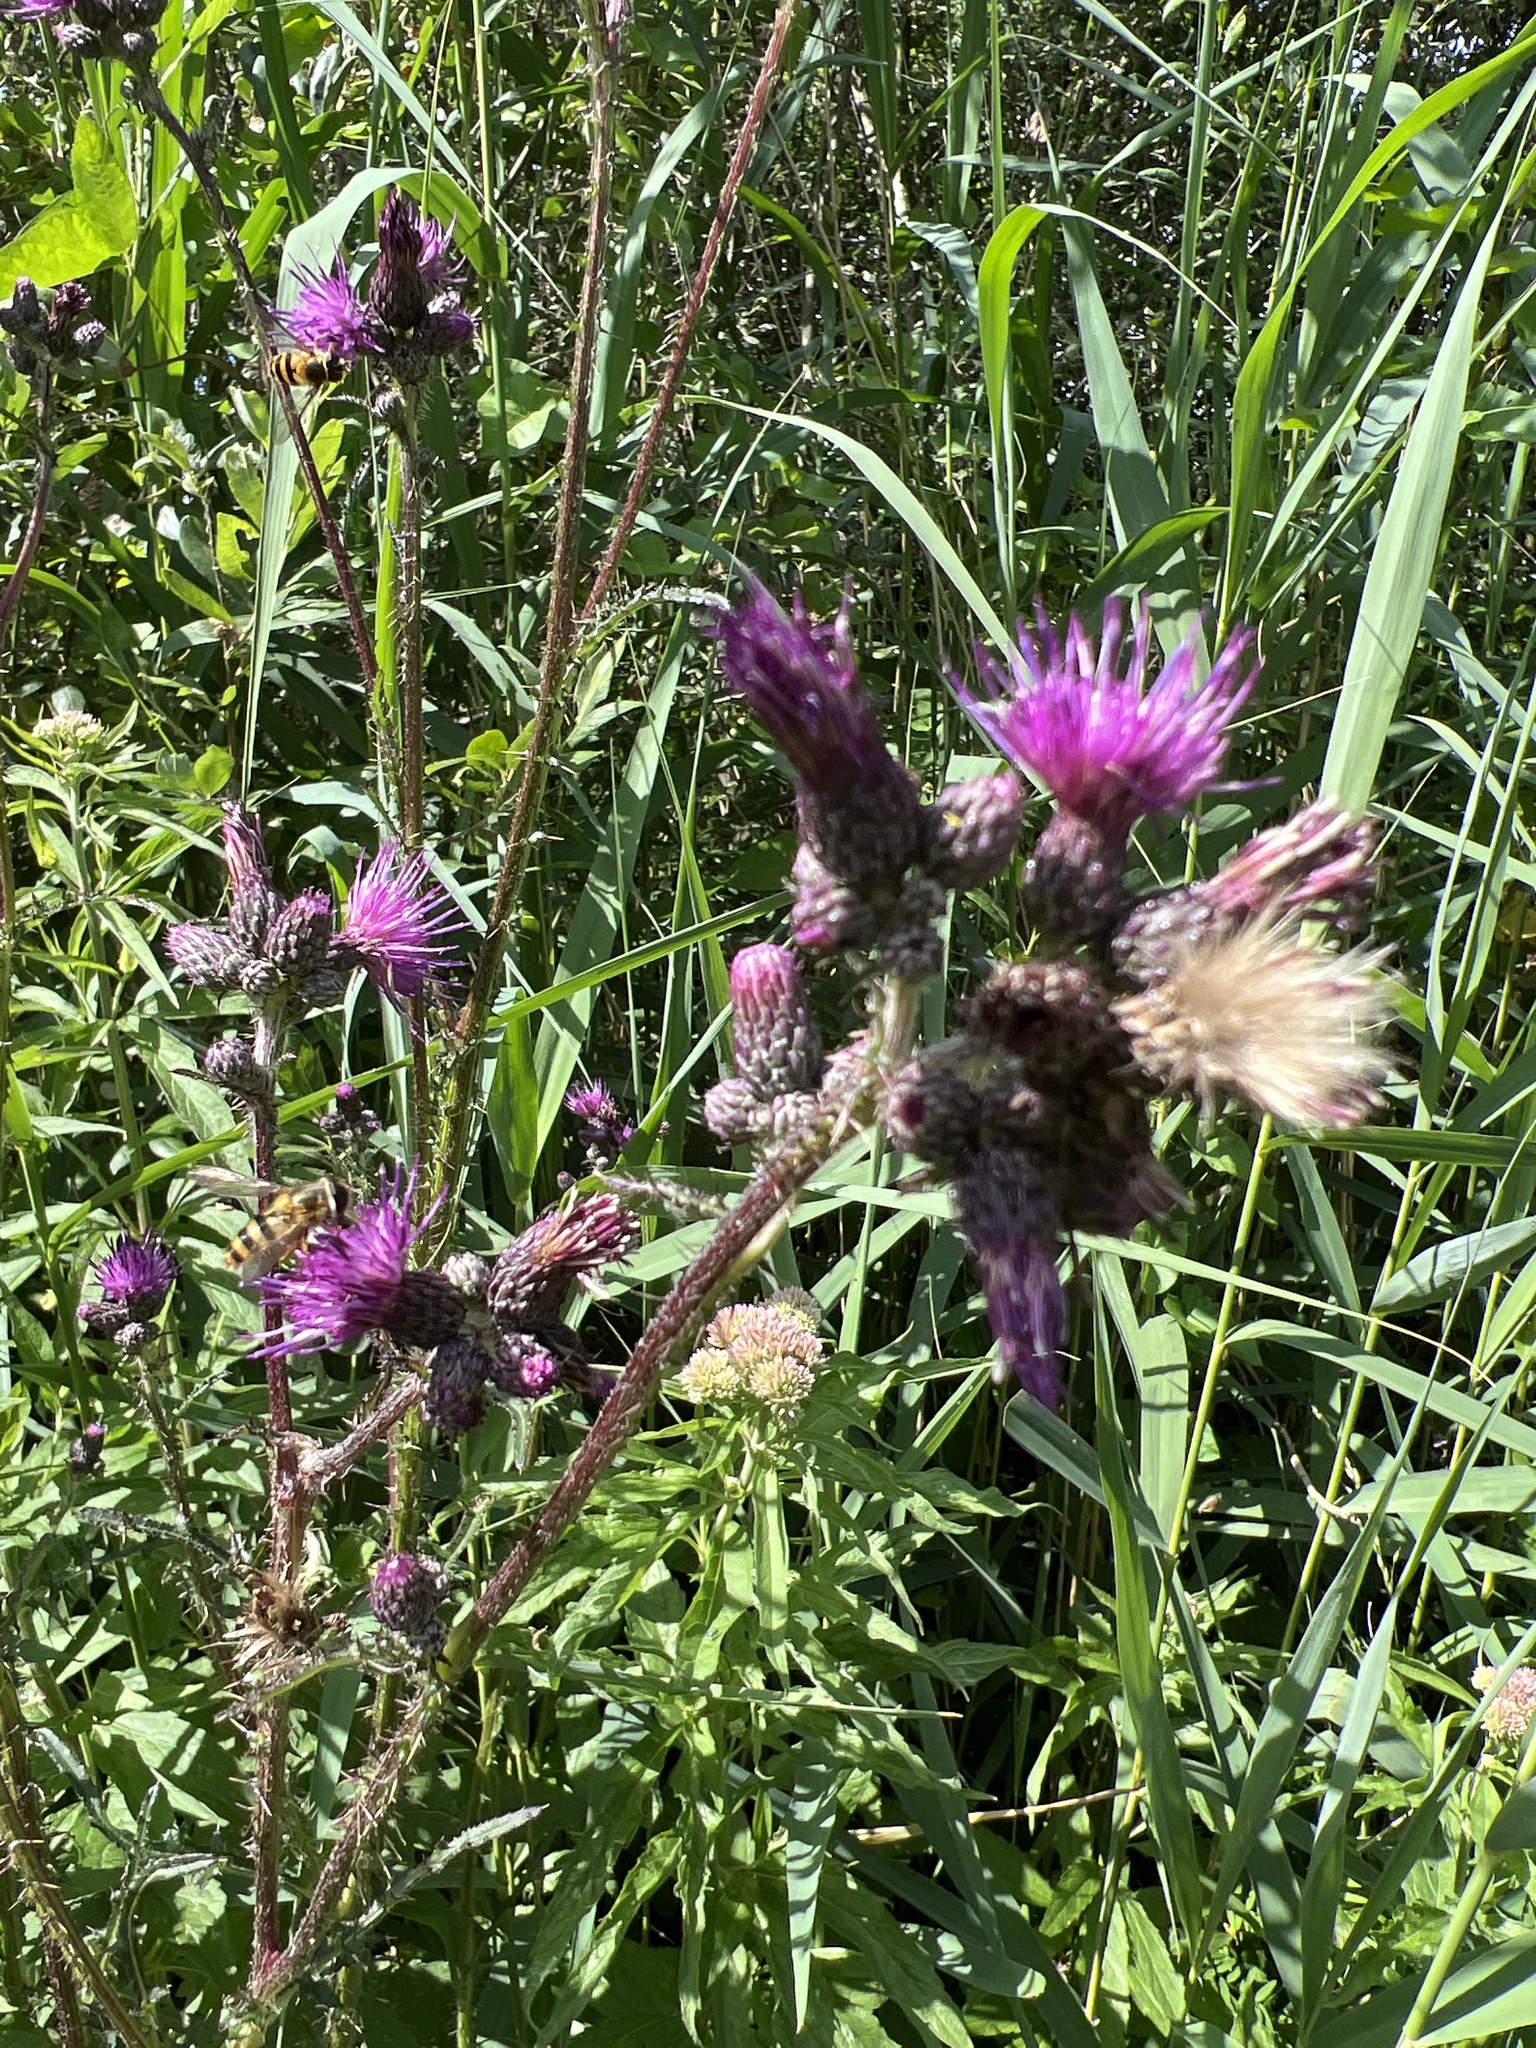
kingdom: Plantae
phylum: Tracheophyta
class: Magnoliopsida
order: Asterales
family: Asteraceae
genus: Cirsium
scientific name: Cirsium palustre
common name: Marsh thistle
